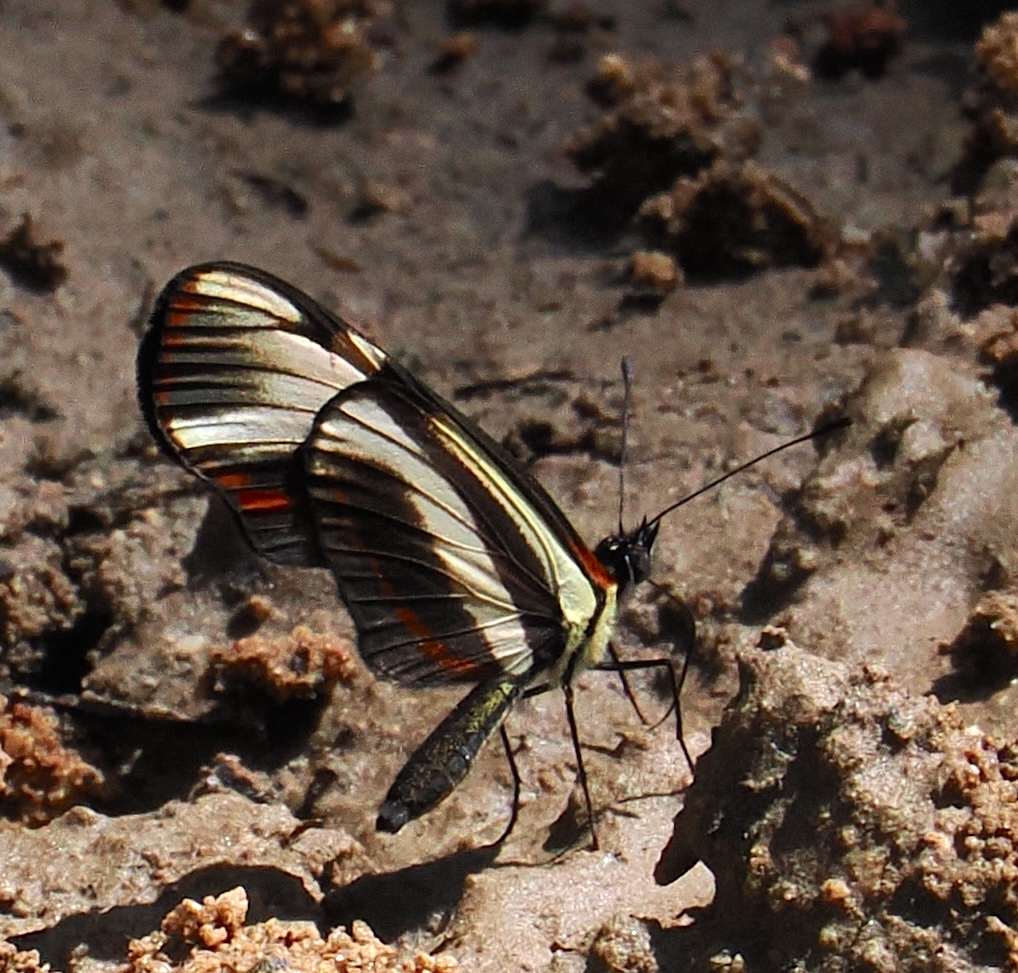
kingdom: Animalia
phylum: Arthropoda
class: Insecta
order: Lepidoptera
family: Nymphalidae
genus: Eresia
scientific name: Eresia lansdorfi
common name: Lansdorf's crescent
